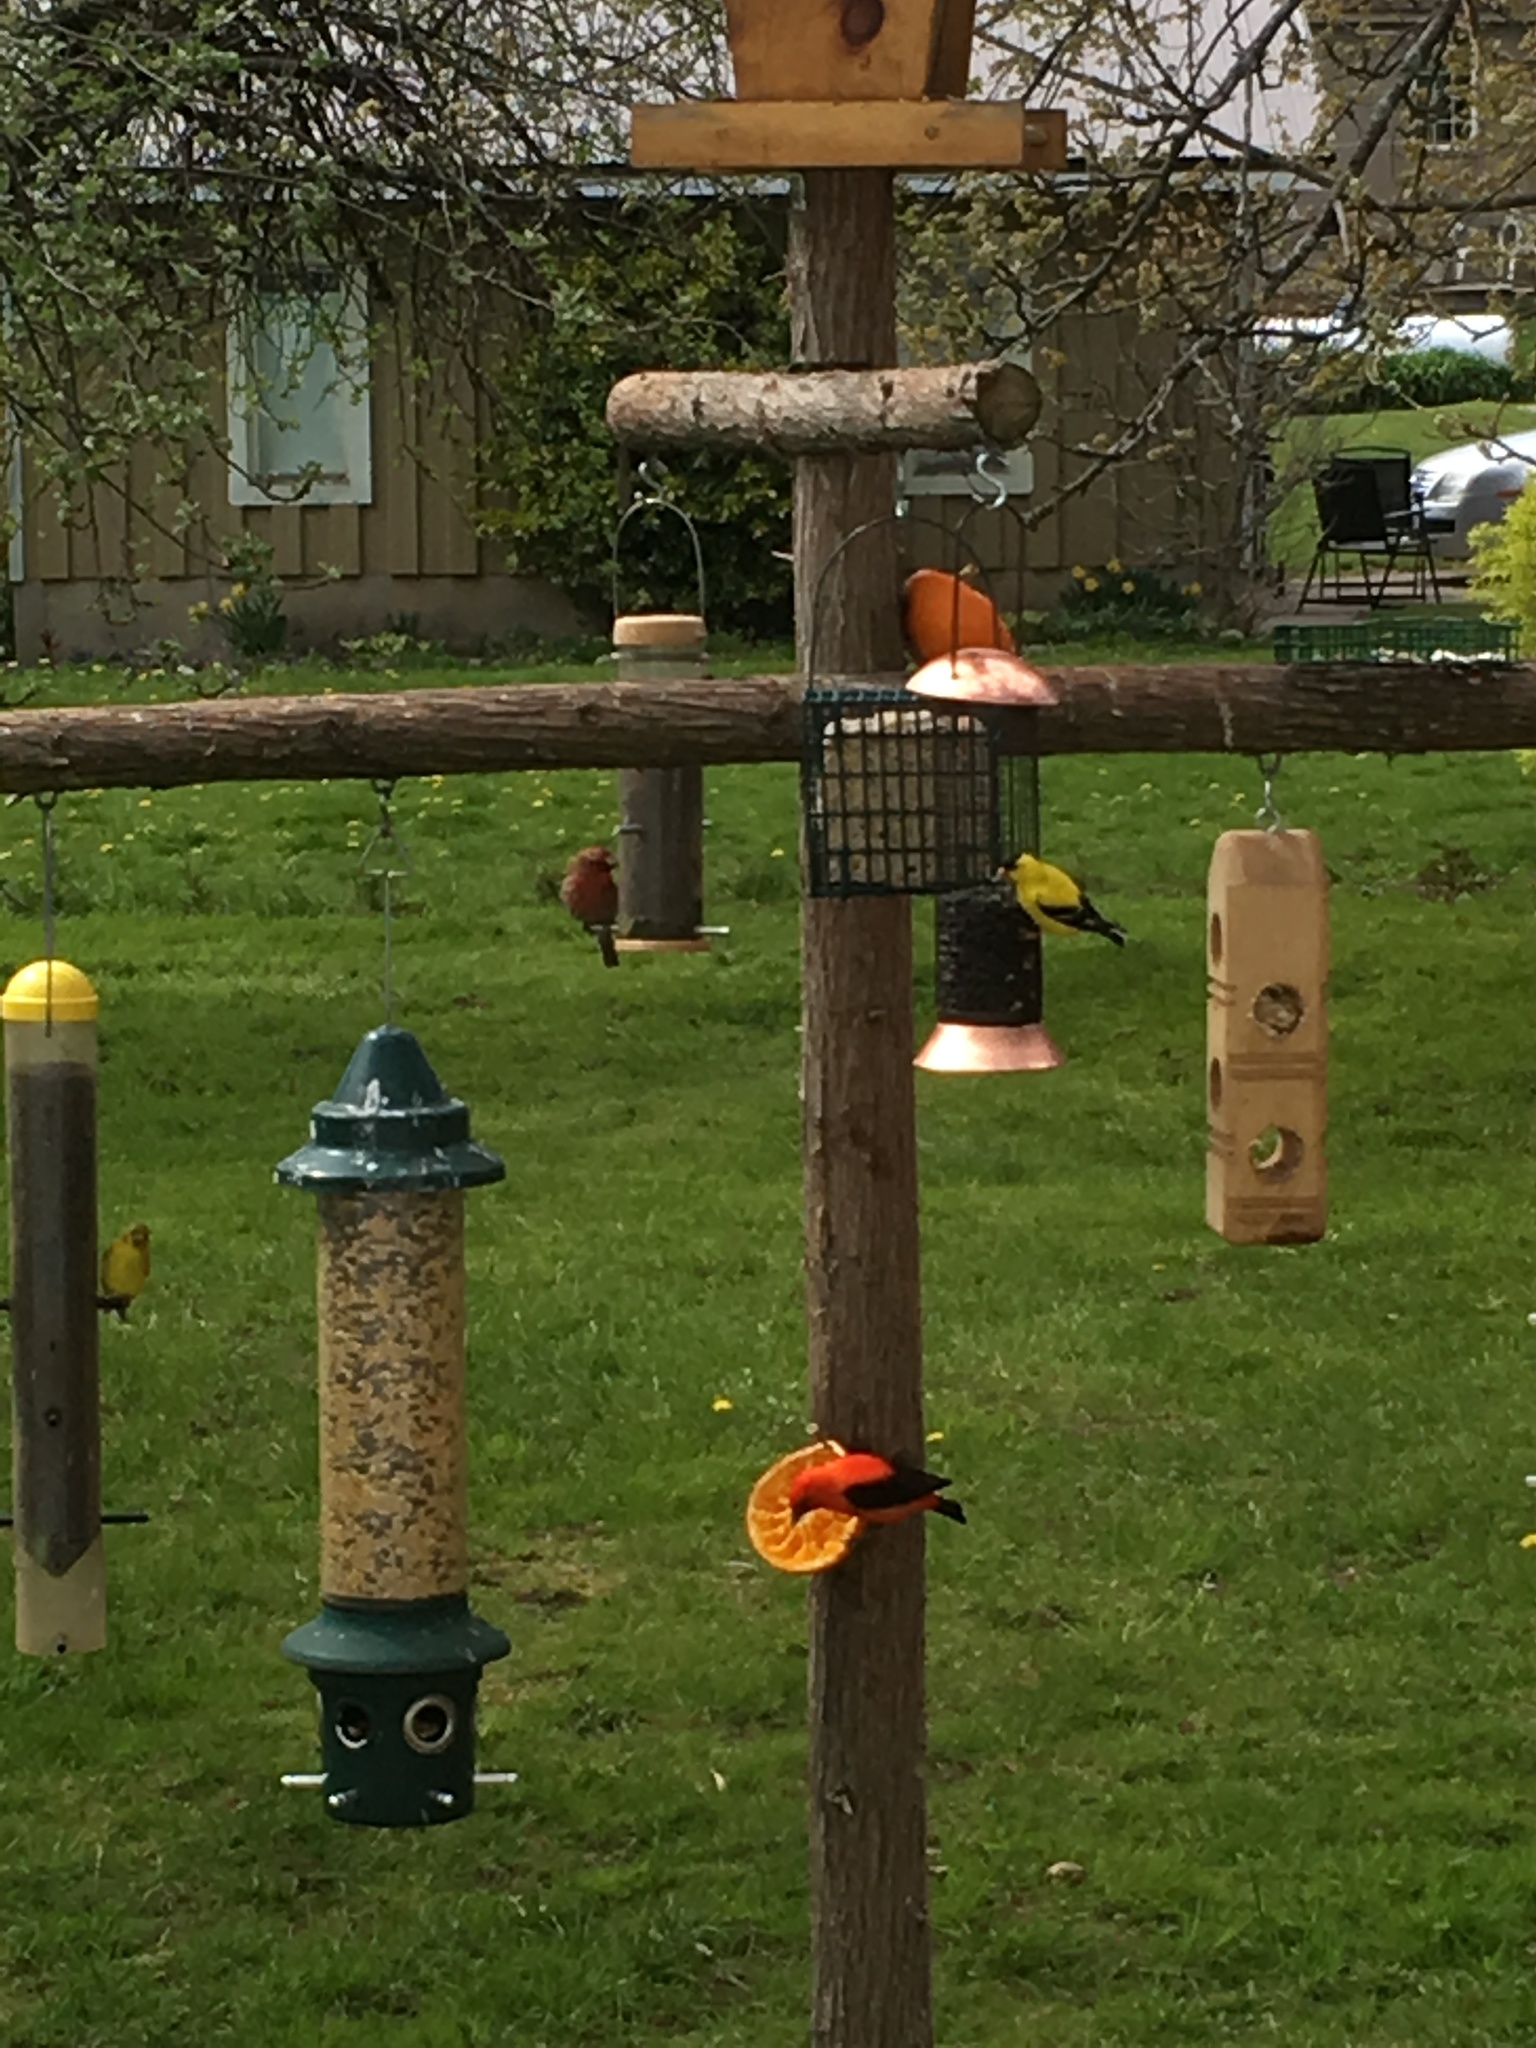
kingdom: Animalia
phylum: Chordata
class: Aves
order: Passeriformes
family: Cardinalidae
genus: Piranga
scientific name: Piranga olivacea
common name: Scarlet tanager
